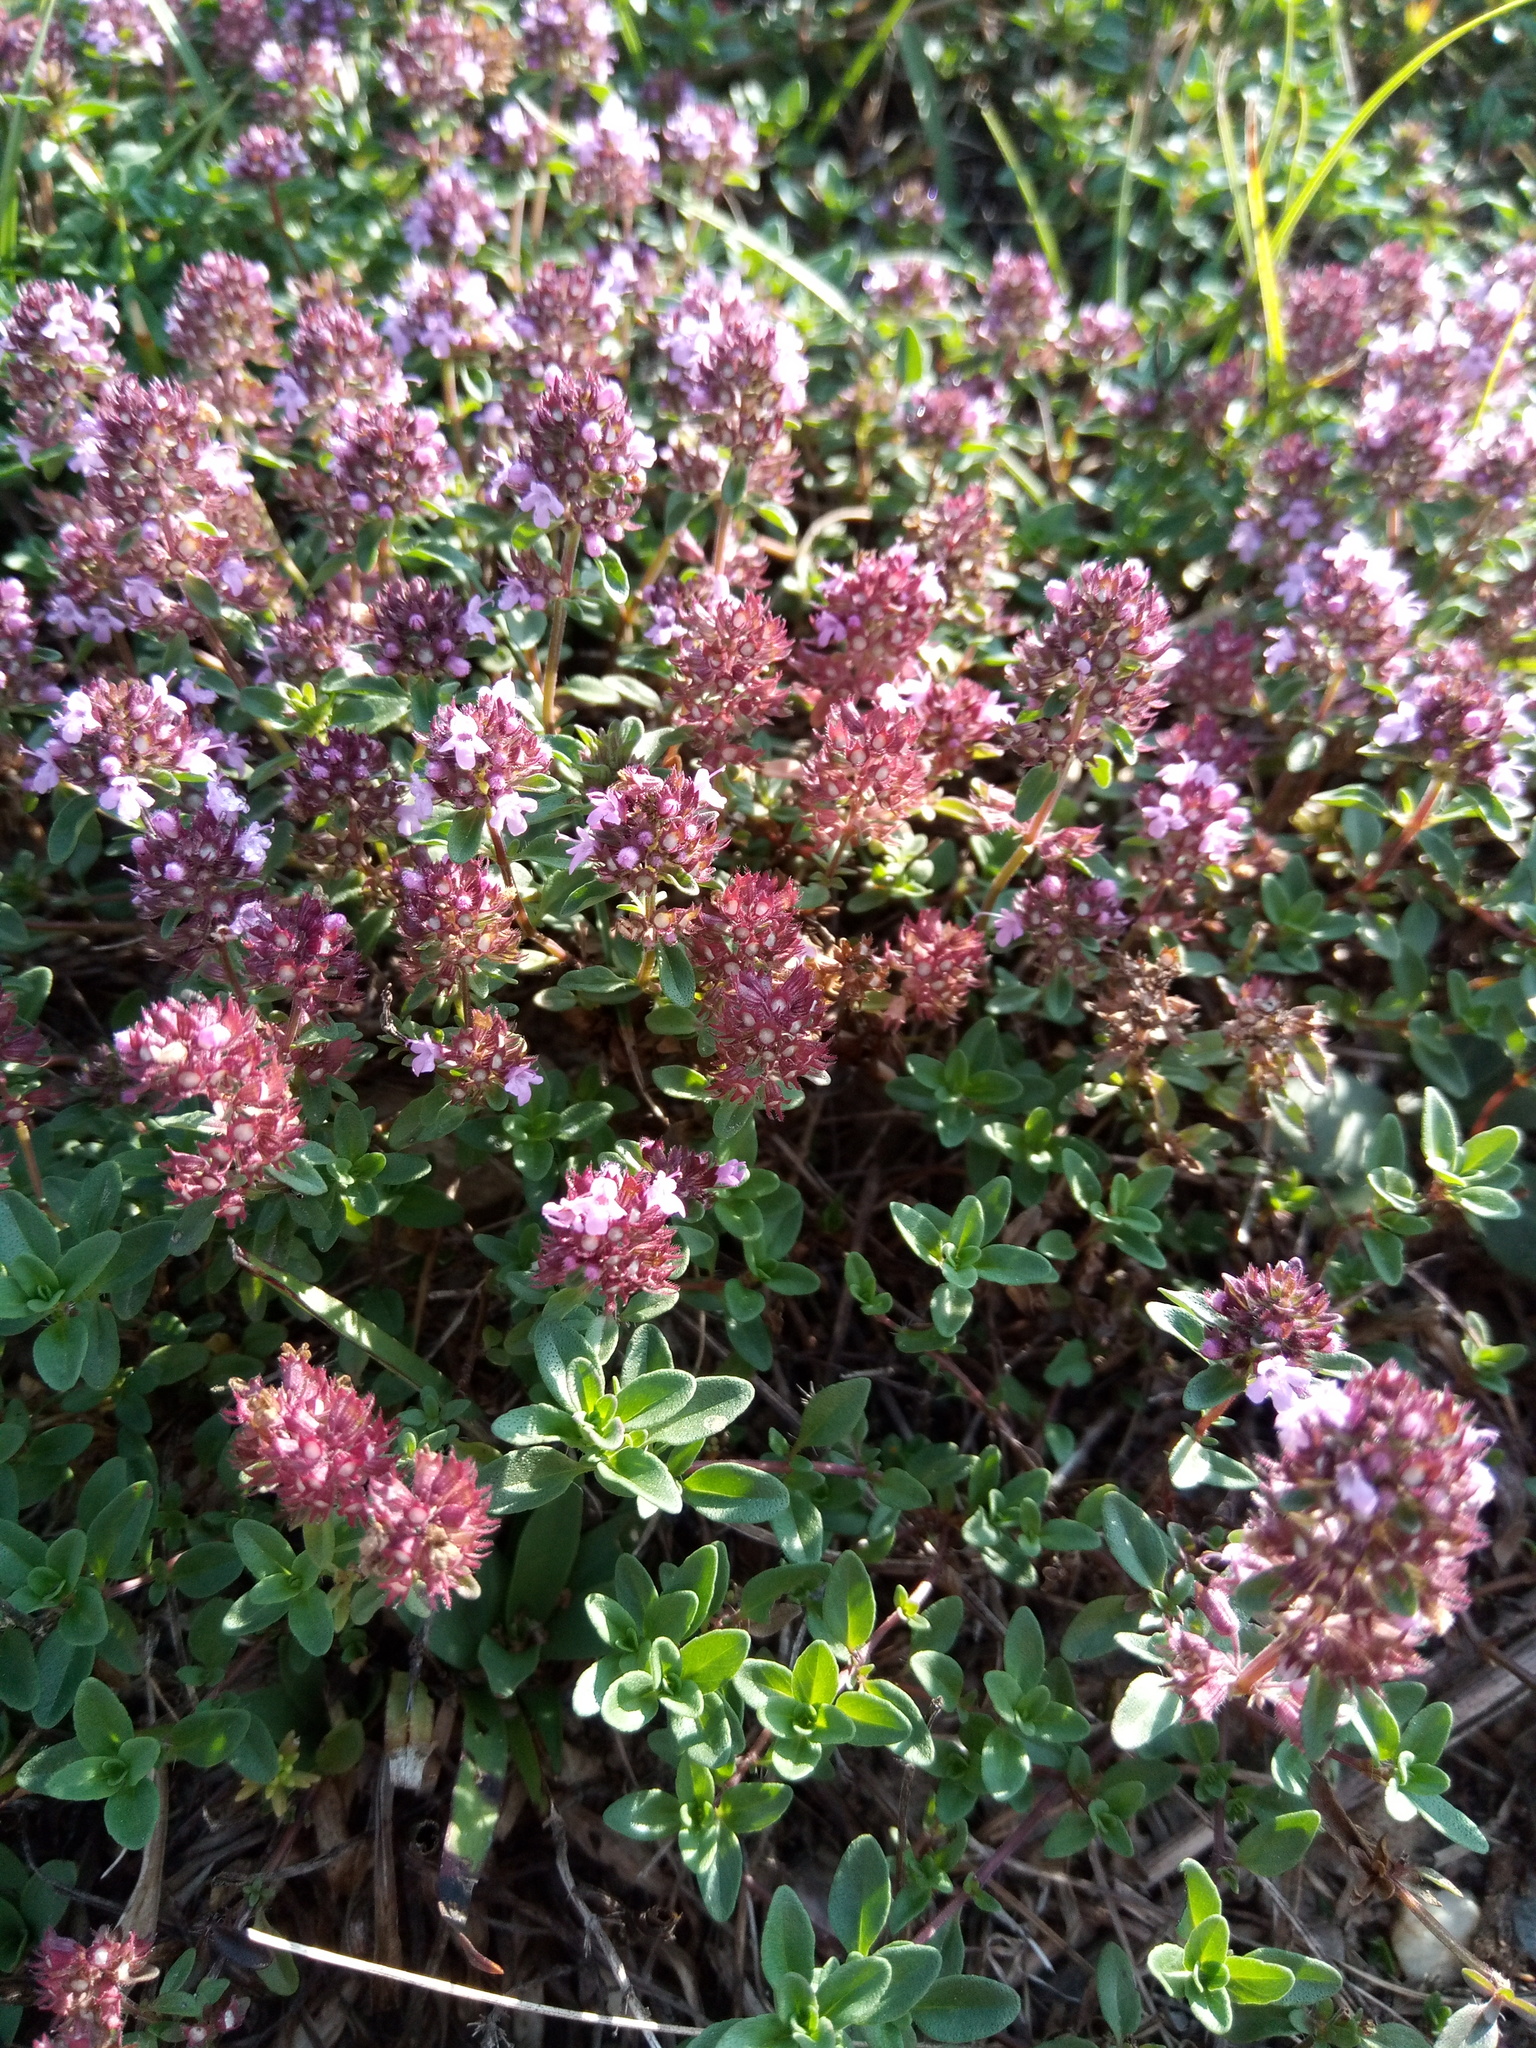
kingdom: Plantae
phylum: Tracheophyta
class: Magnoliopsida
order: Lamiales
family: Lamiaceae
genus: Thymus
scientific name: Thymus pulegioides
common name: Large thyme
